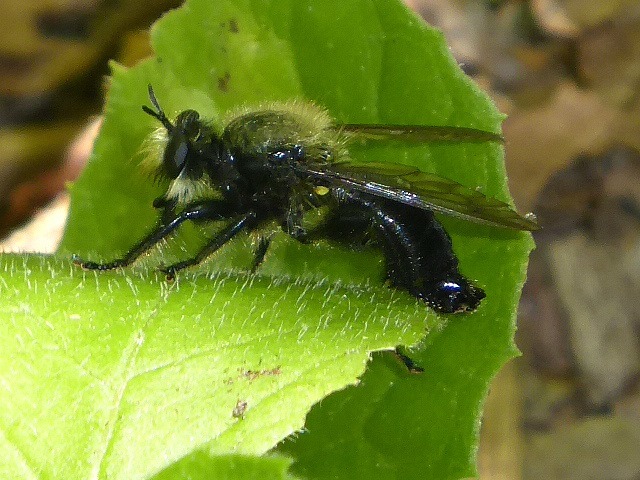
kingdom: Animalia
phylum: Arthropoda
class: Insecta
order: Diptera
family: Asilidae
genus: Laphria
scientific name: Laphria flavicollis
